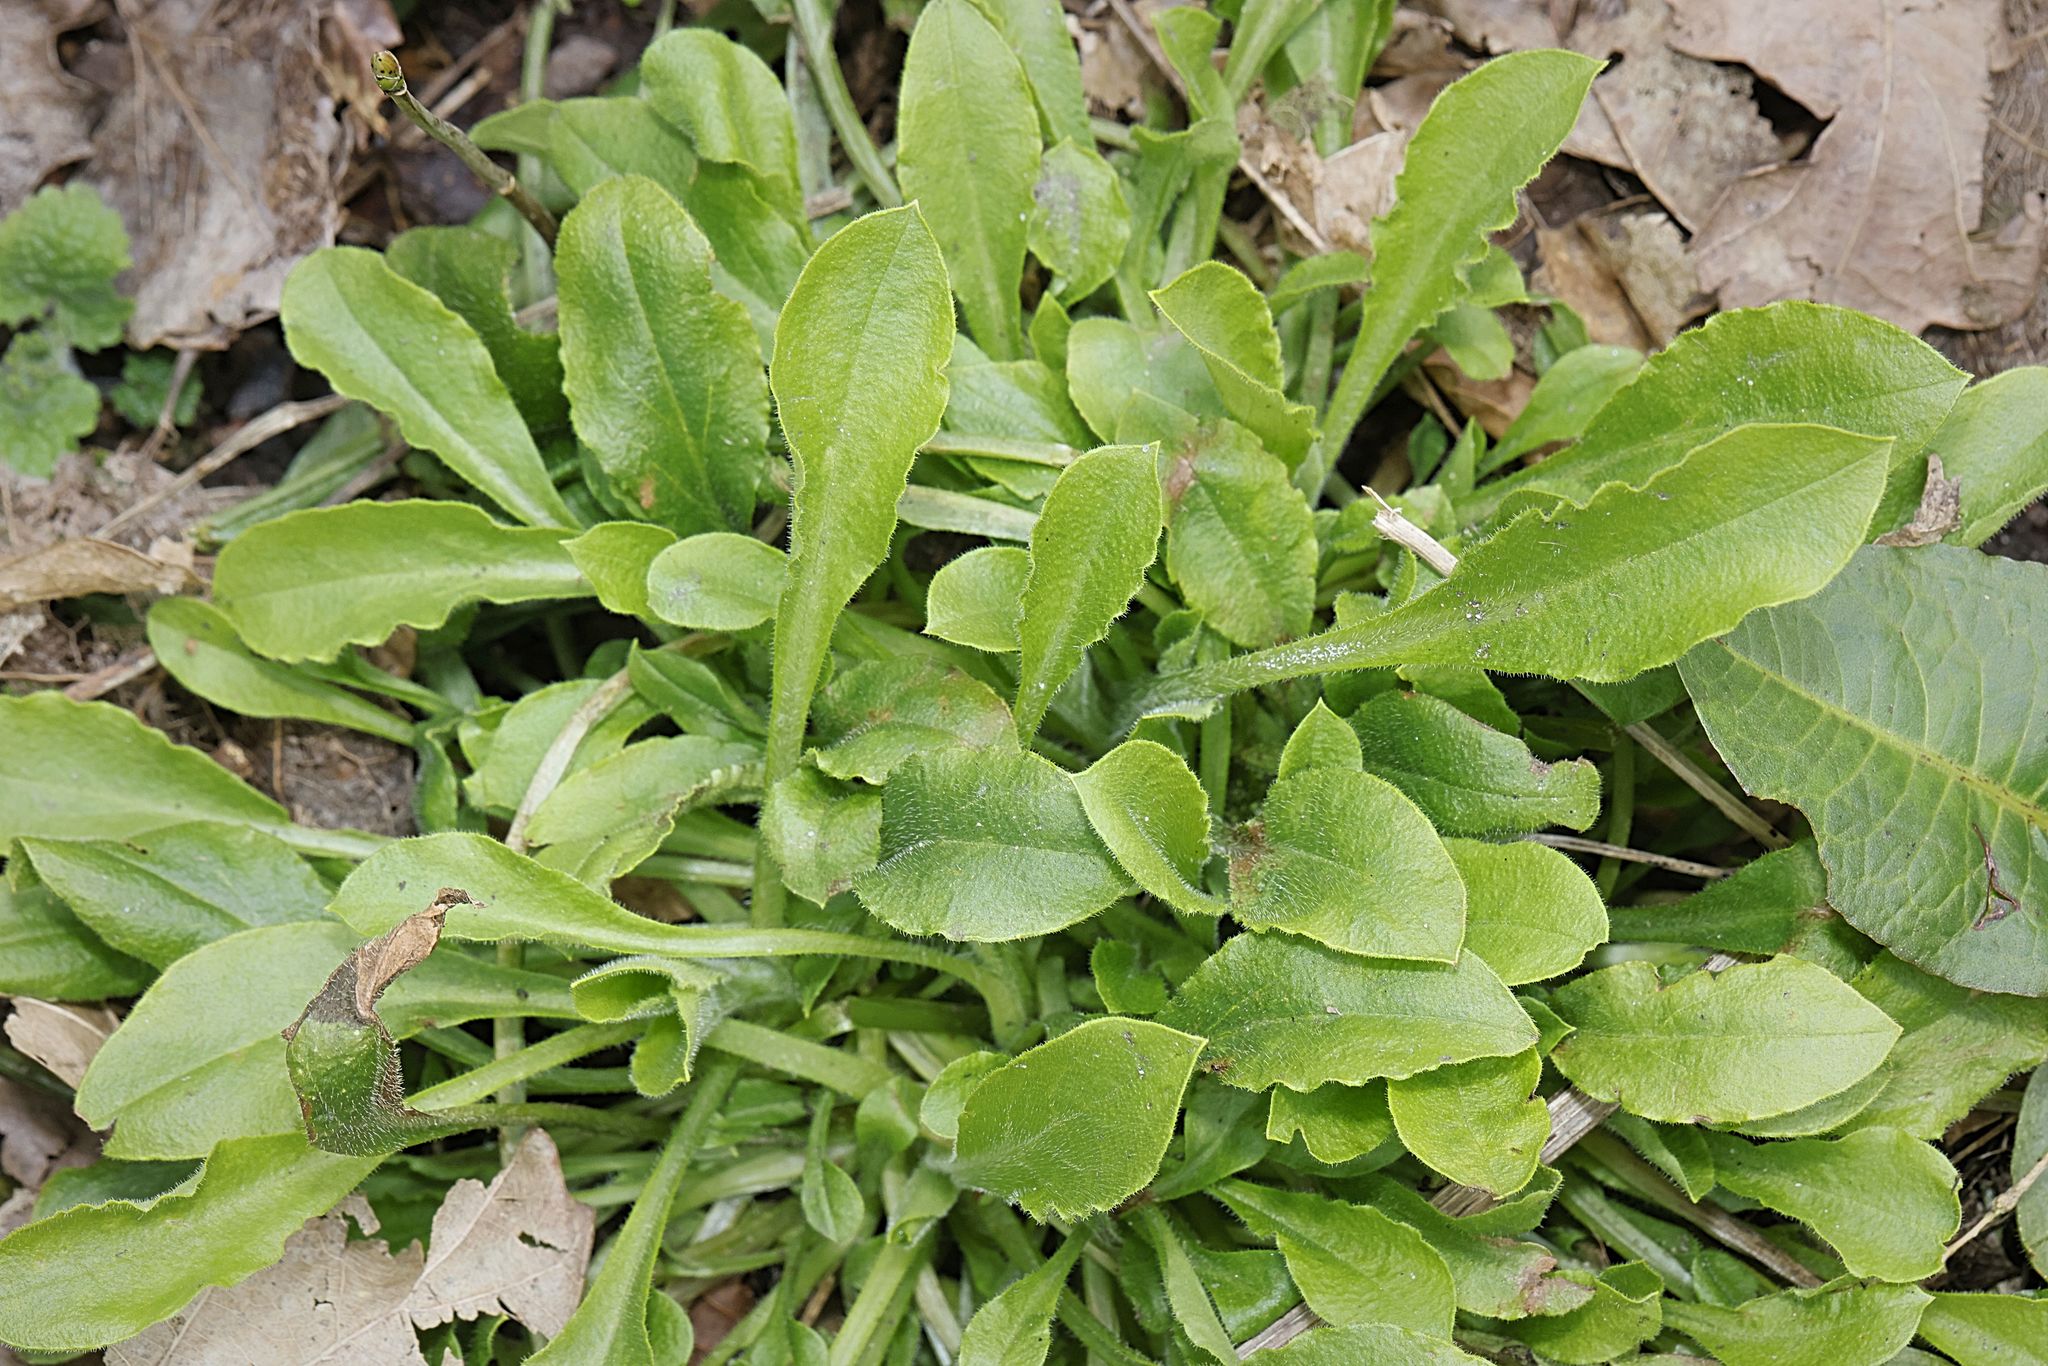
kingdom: Plantae
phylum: Tracheophyta
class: Magnoliopsida
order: Caryophyllales
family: Caryophyllaceae
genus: Silene
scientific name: Silene dioica
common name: Red campion
